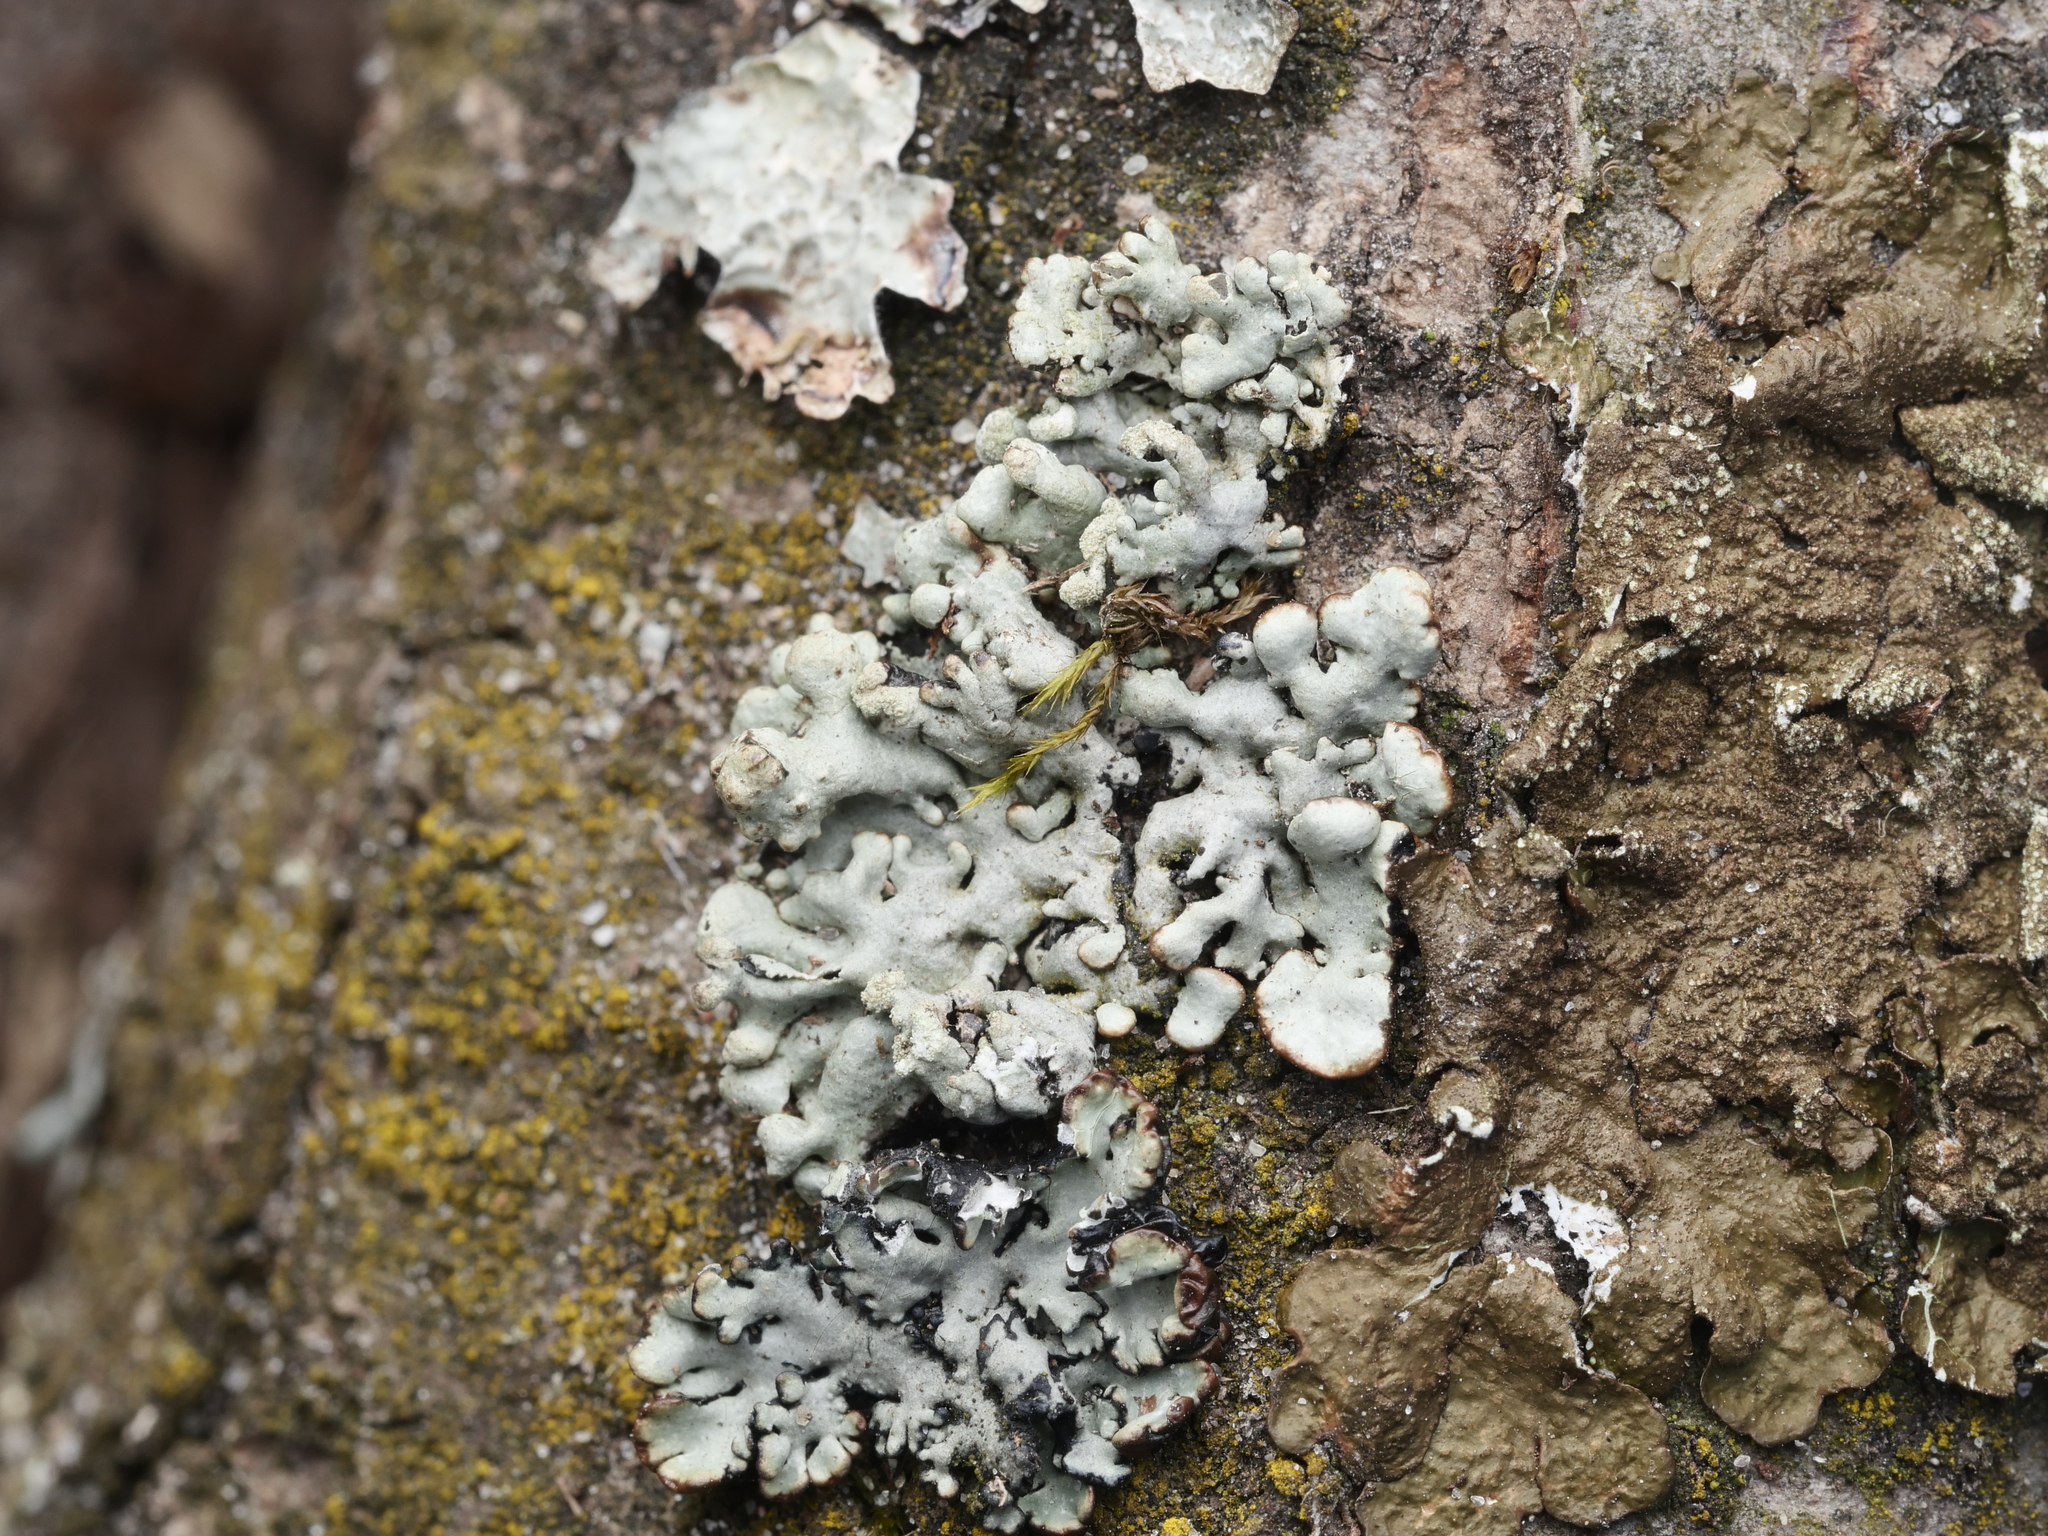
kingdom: Fungi
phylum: Ascomycota
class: Lecanoromycetes
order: Lecanorales
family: Parmeliaceae
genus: Hypogymnia
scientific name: Hypogymnia physodes
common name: Dark crottle
